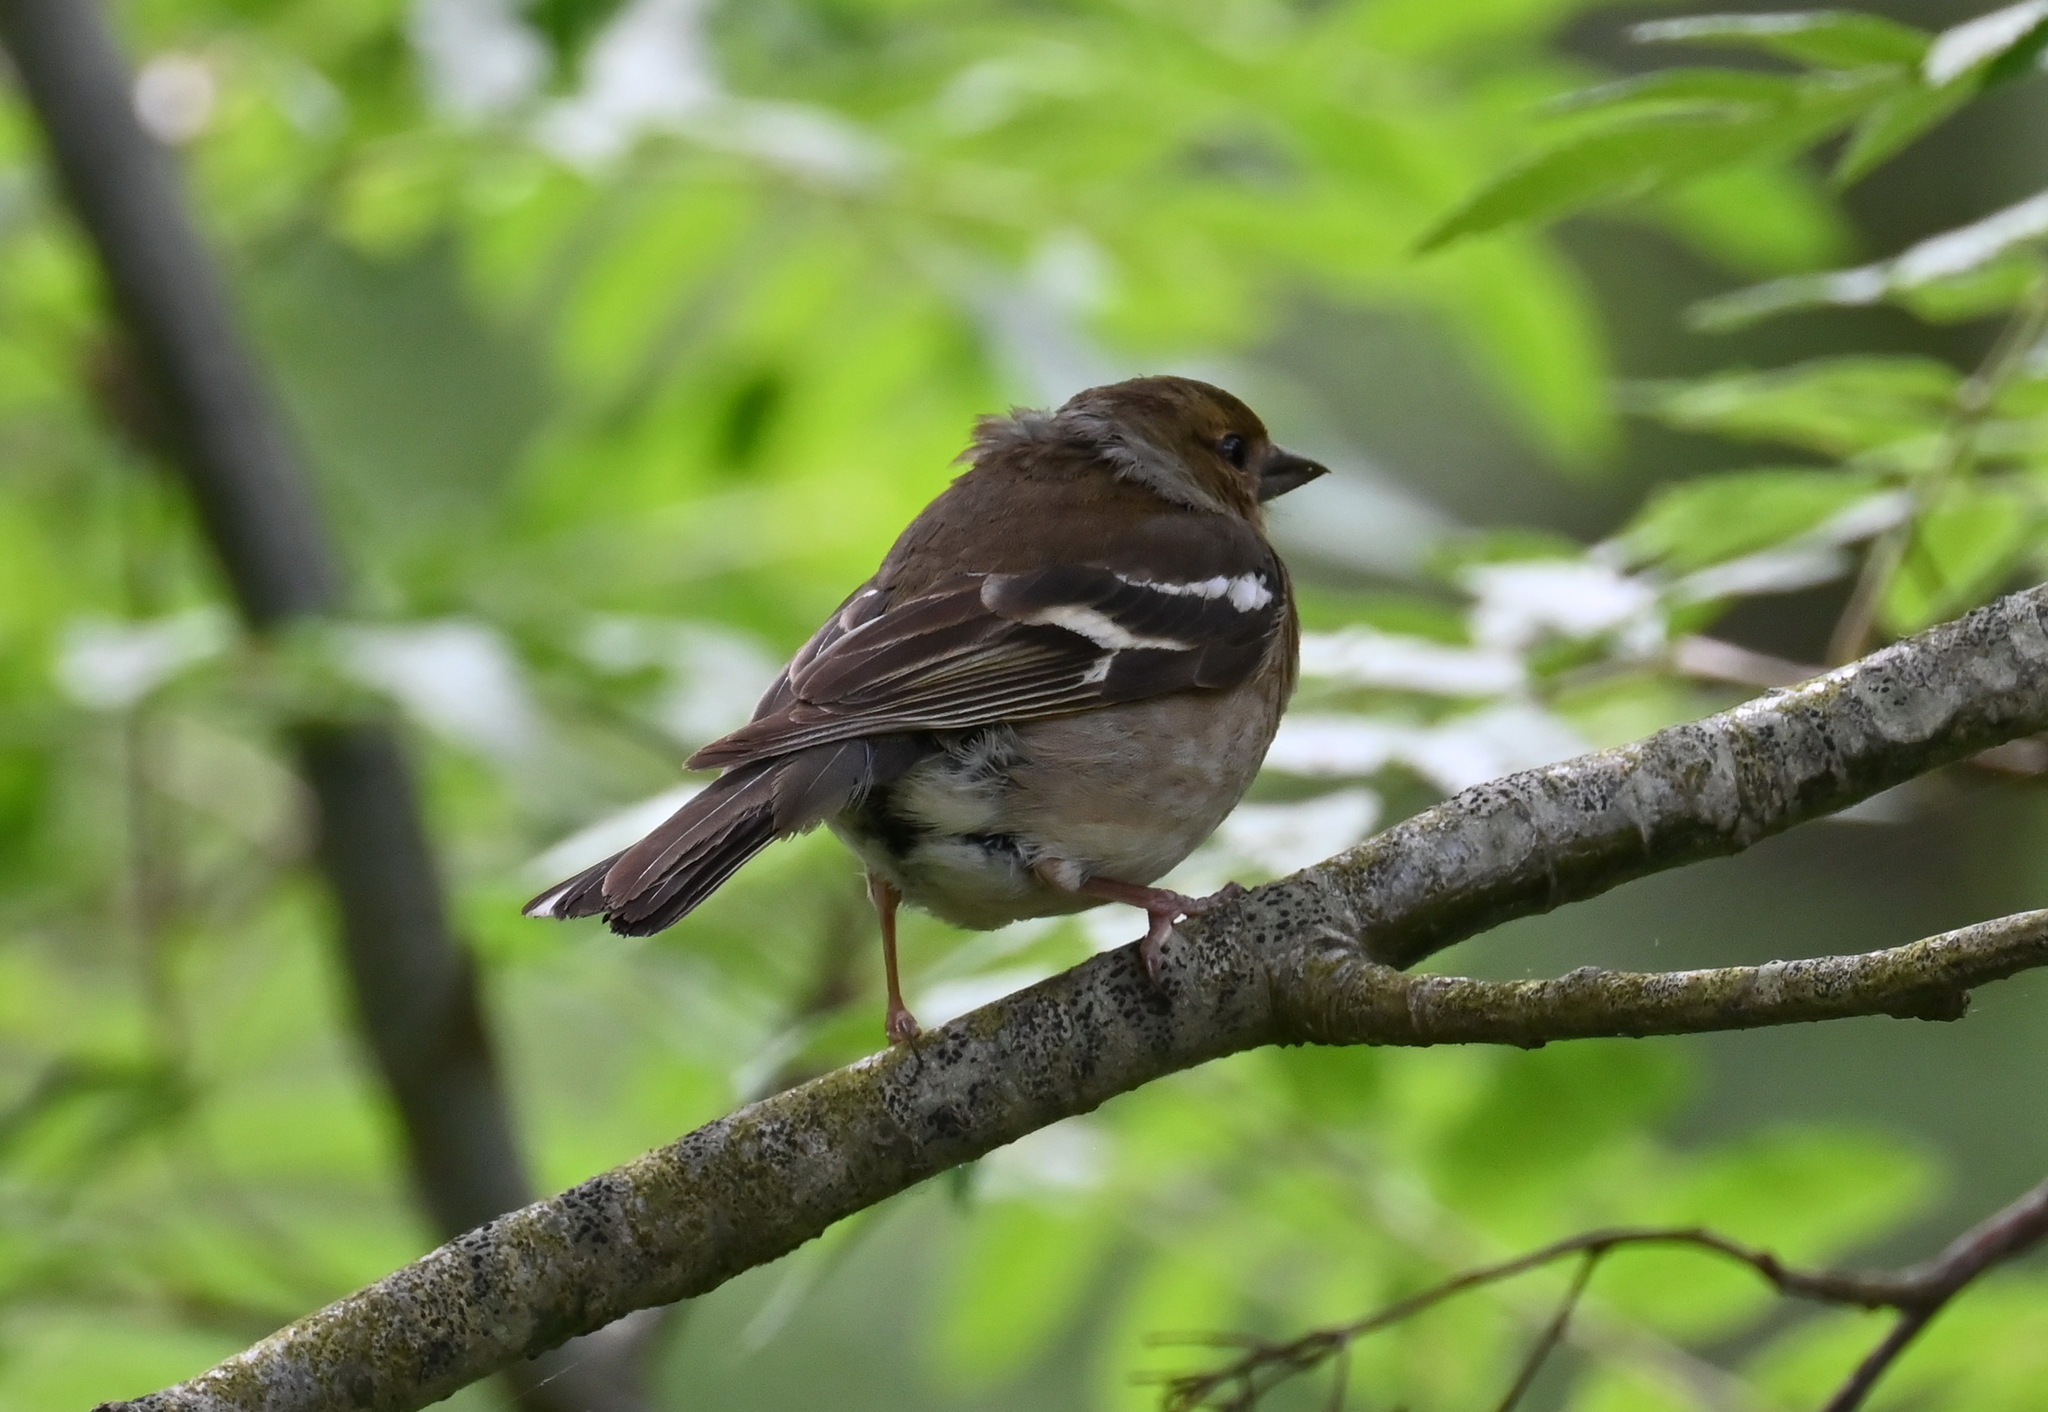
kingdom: Animalia
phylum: Chordata
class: Aves
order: Passeriformes
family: Fringillidae
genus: Fringilla
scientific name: Fringilla coelebs
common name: Common chaffinch
